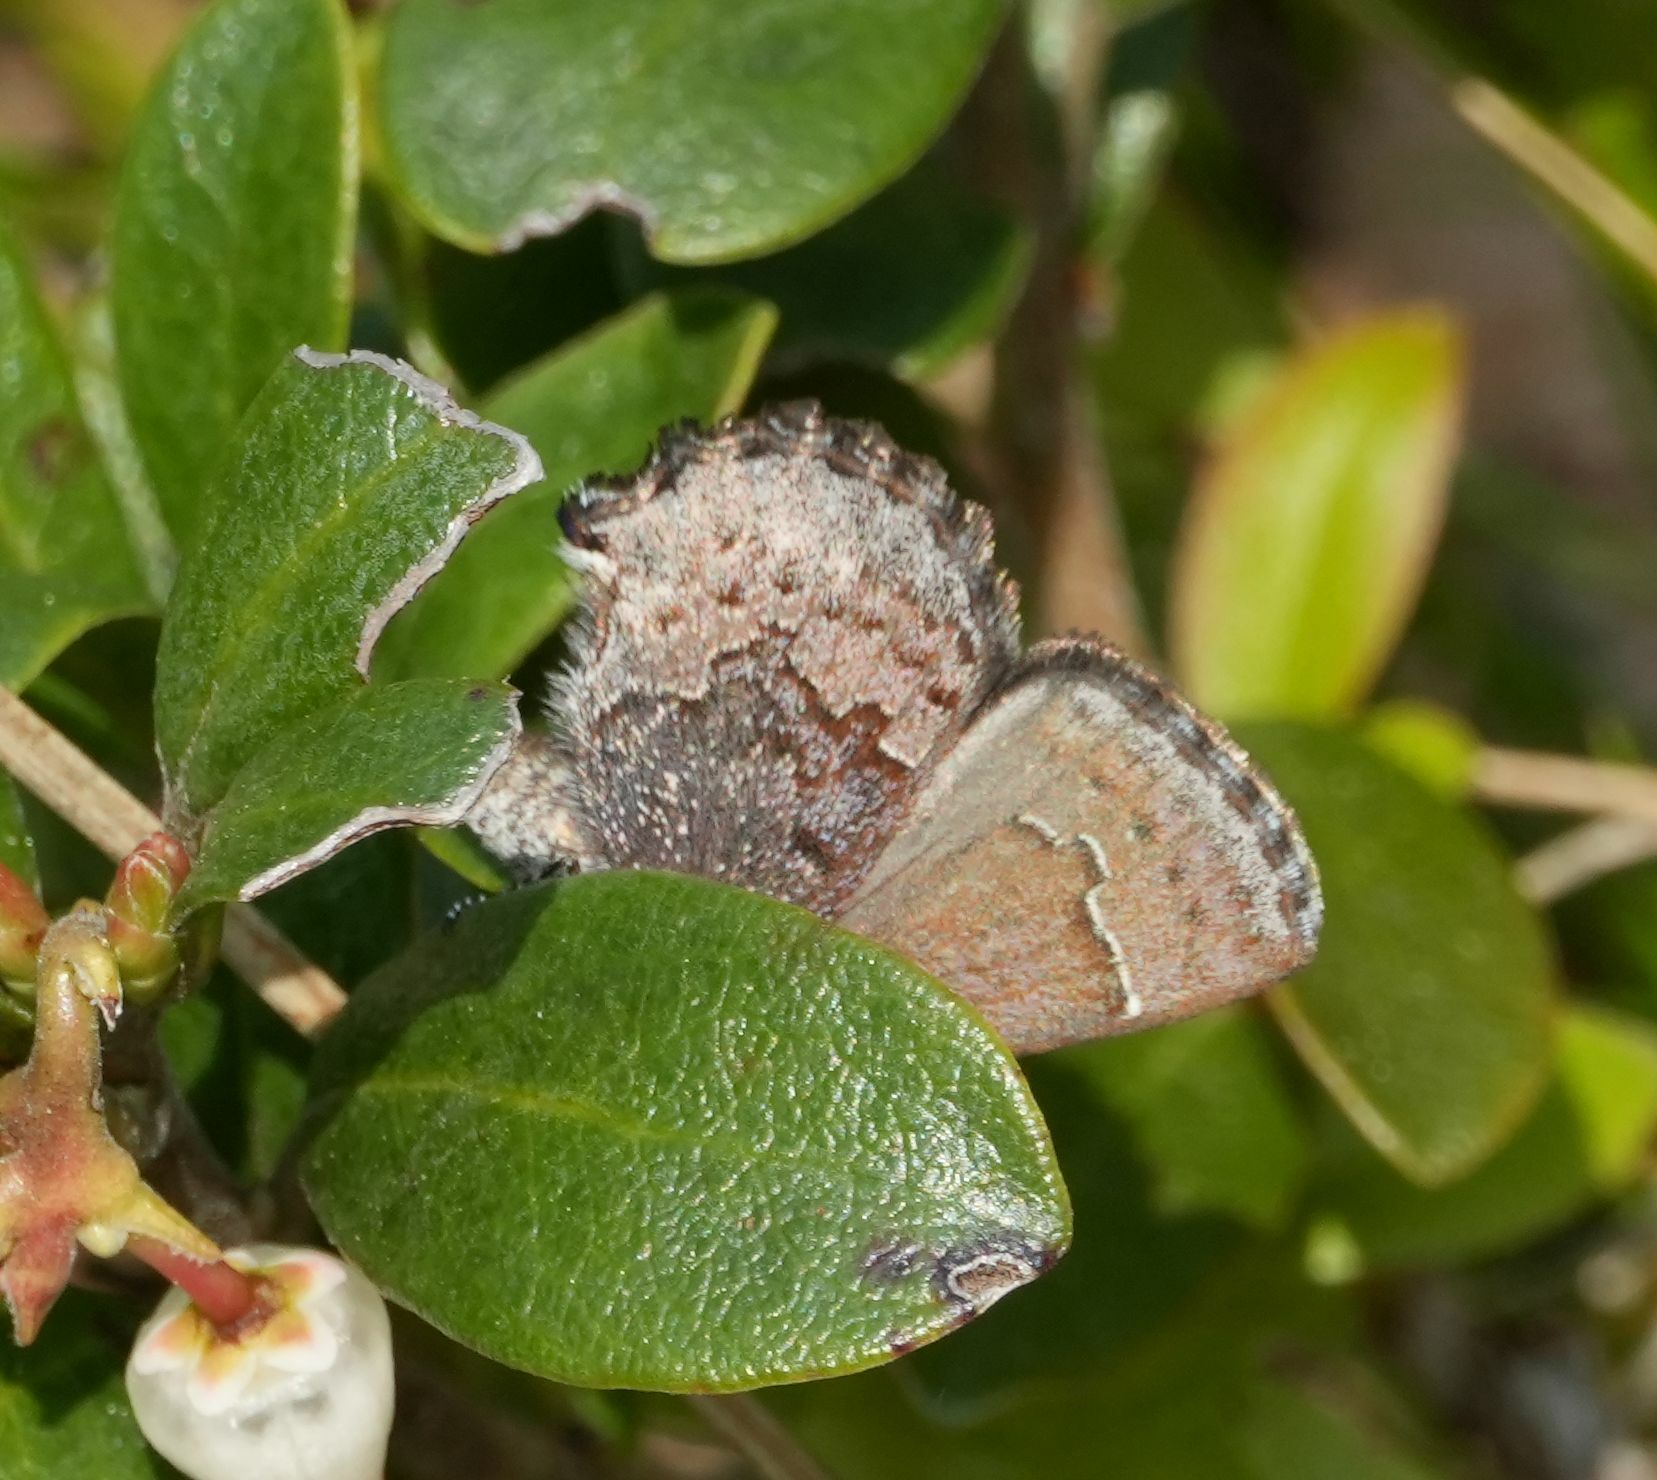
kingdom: Animalia
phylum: Arthropoda
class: Insecta
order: Lepidoptera
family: Lycaenidae
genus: Callophrys
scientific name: Callophrys polios
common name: Hoary elfin
